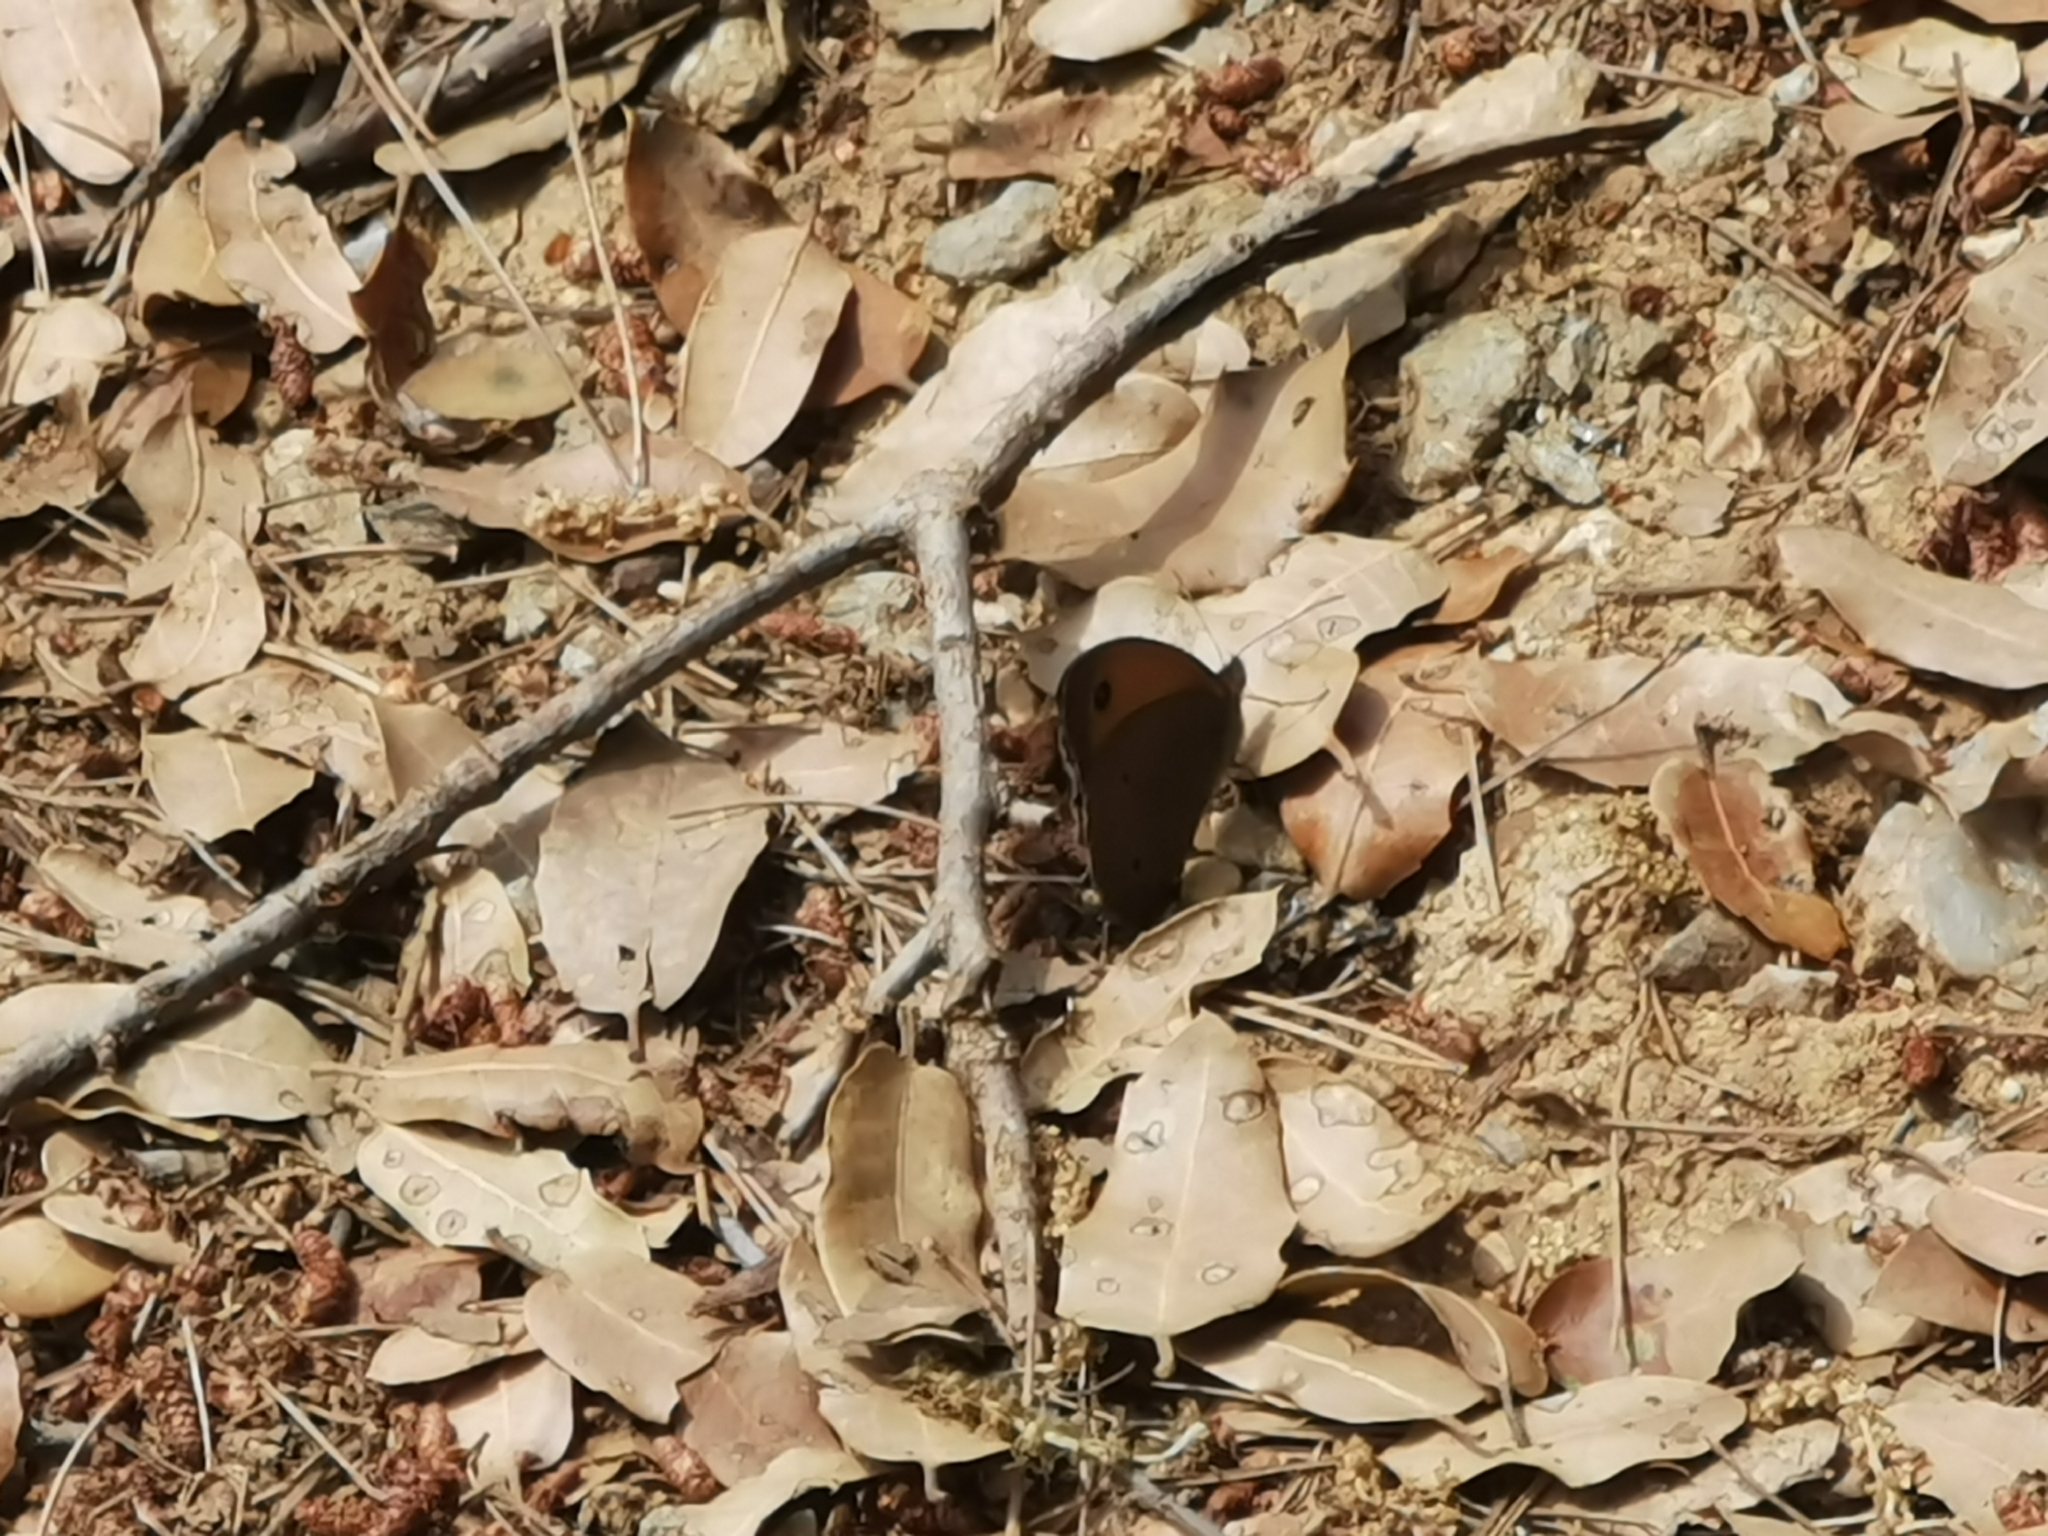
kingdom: Animalia
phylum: Arthropoda
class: Insecta
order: Lepidoptera
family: Nymphalidae
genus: Maniola
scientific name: Maniola jurtina
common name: Meadow brown
